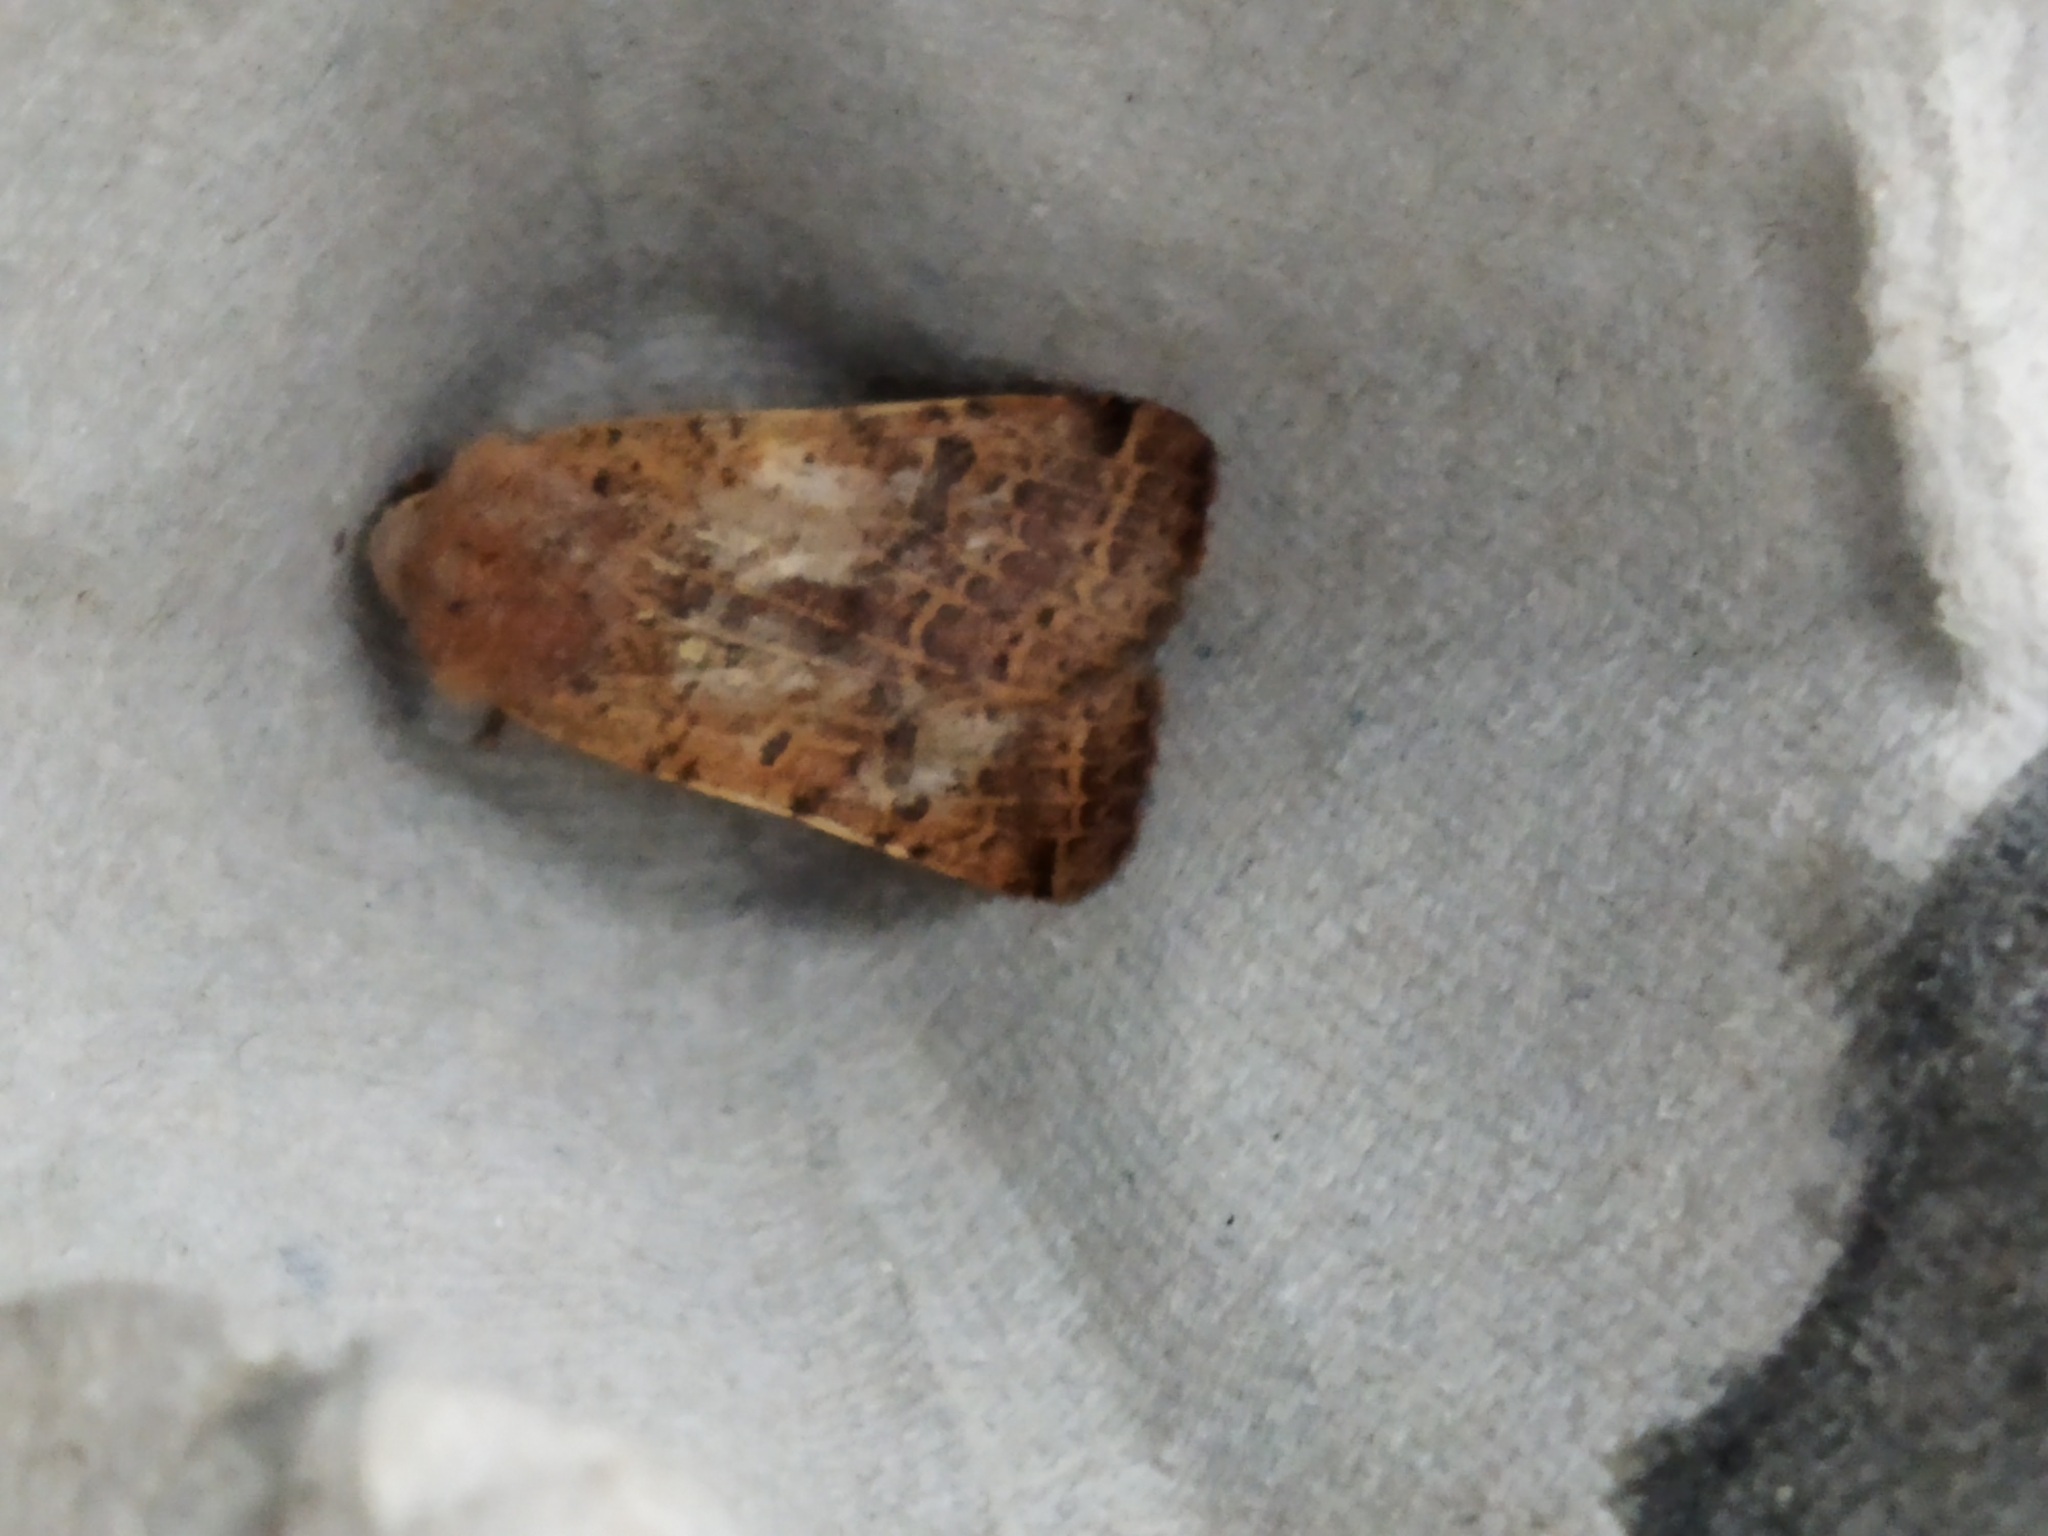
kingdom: Animalia
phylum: Arthropoda
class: Insecta
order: Lepidoptera
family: Noctuidae
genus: Agrochola
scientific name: Agrochola lychnidis
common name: Beaded chestnut
